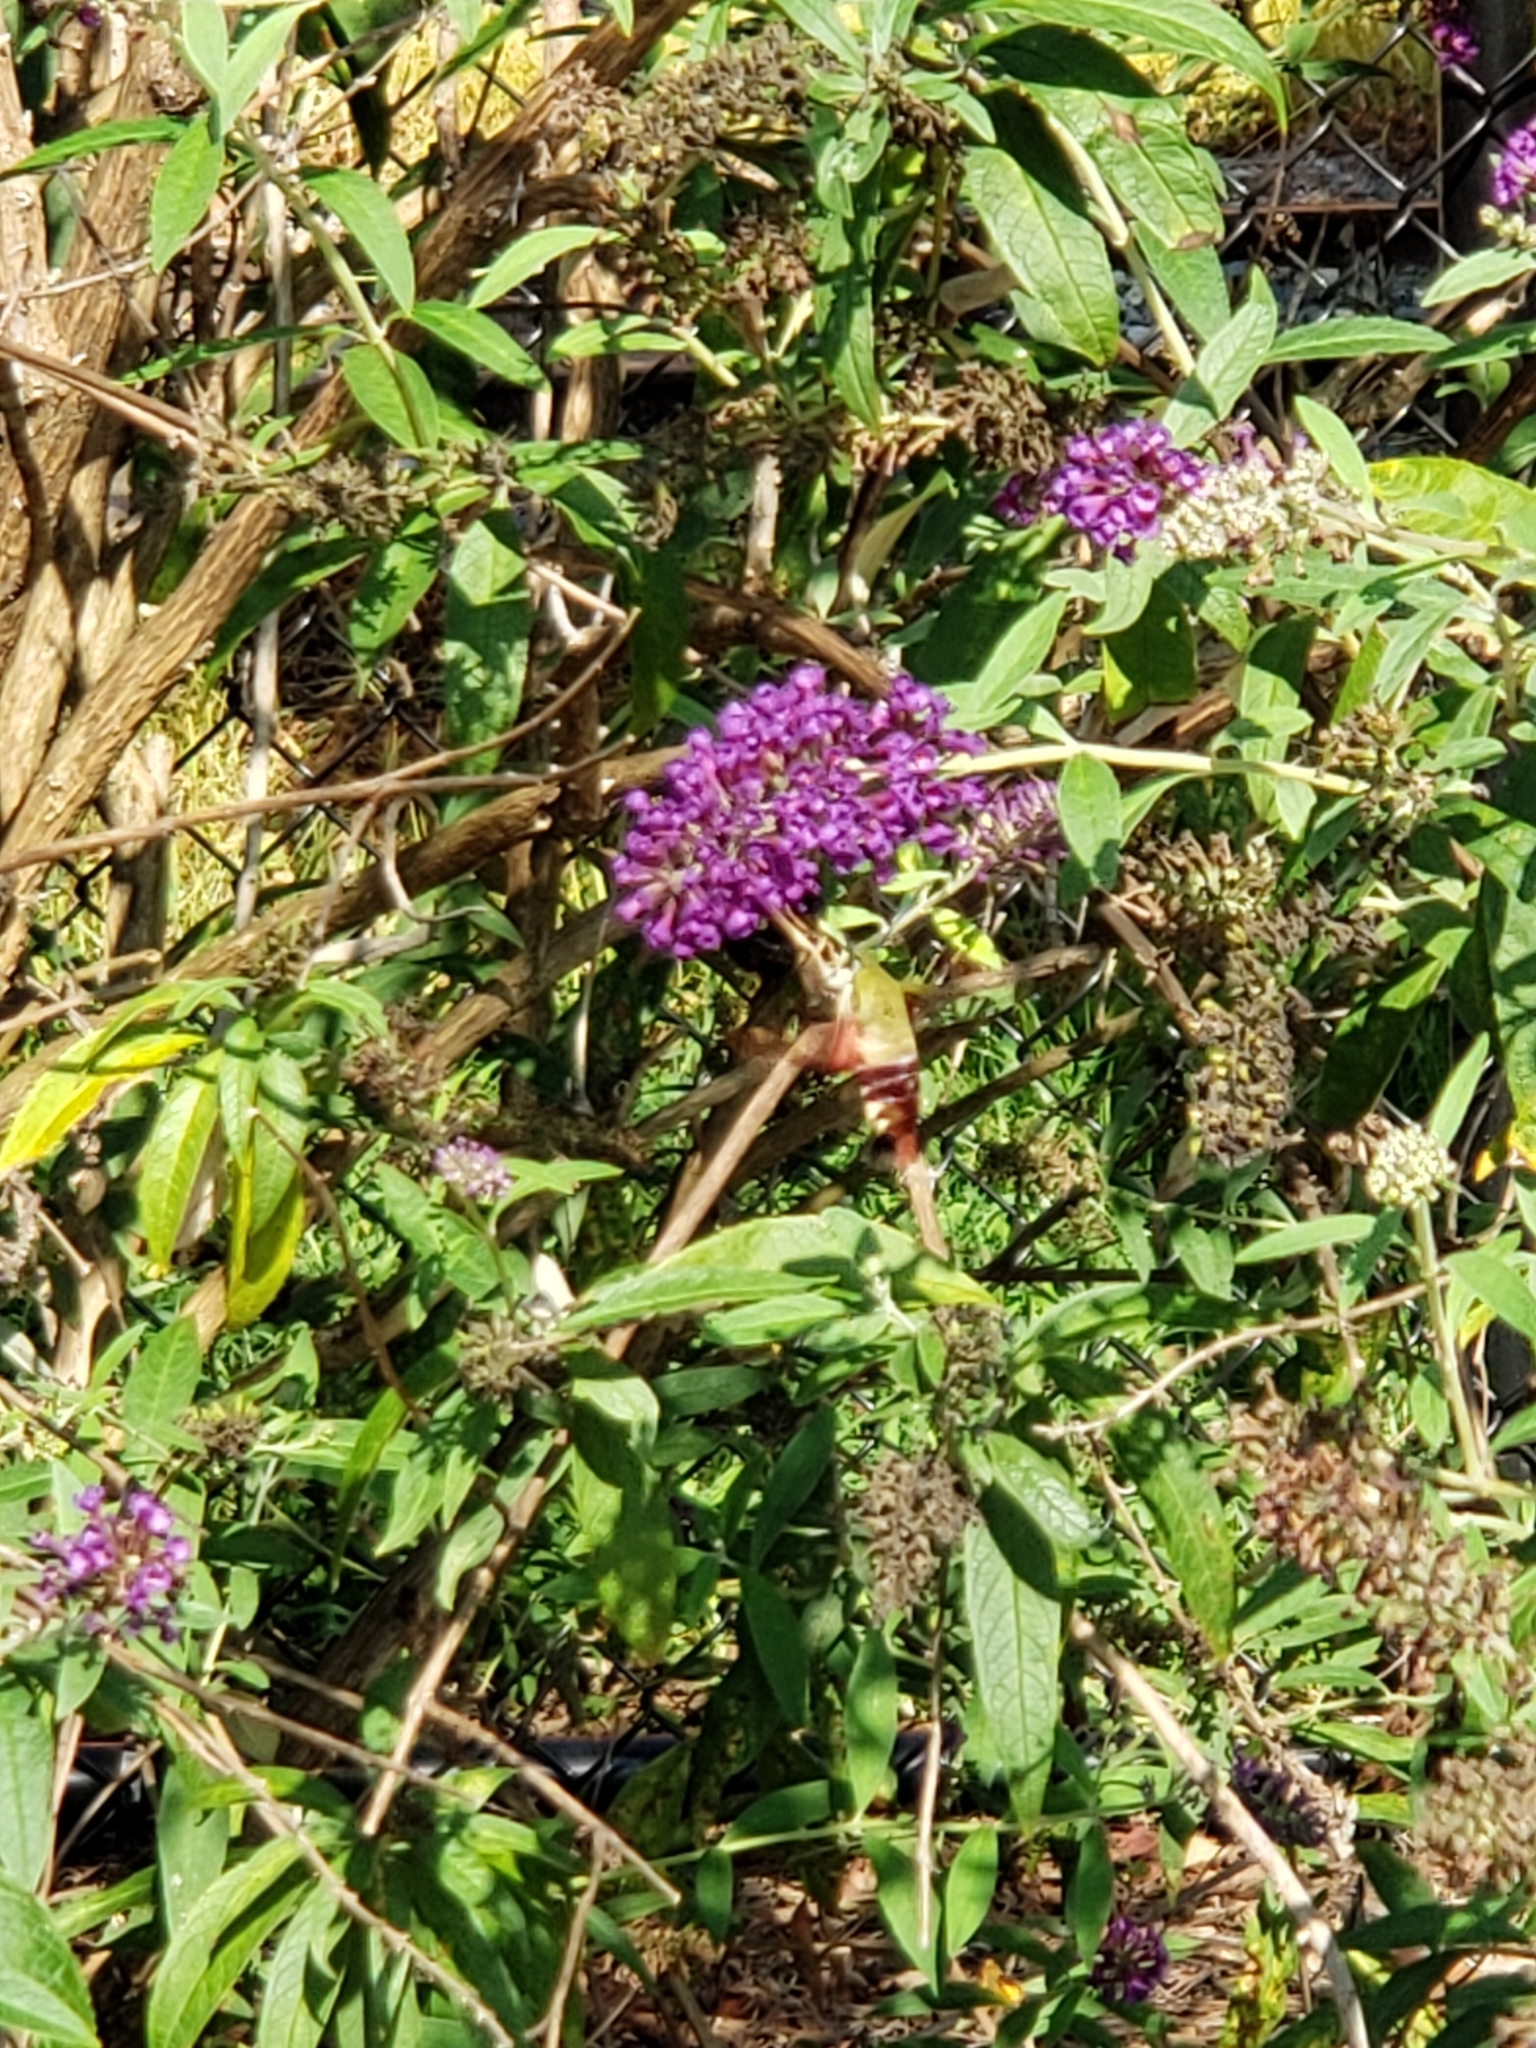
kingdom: Animalia
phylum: Arthropoda
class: Insecta
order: Lepidoptera
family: Sphingidae
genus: Hemaris
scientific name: Hemaris thysbe
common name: Common clear-wing
